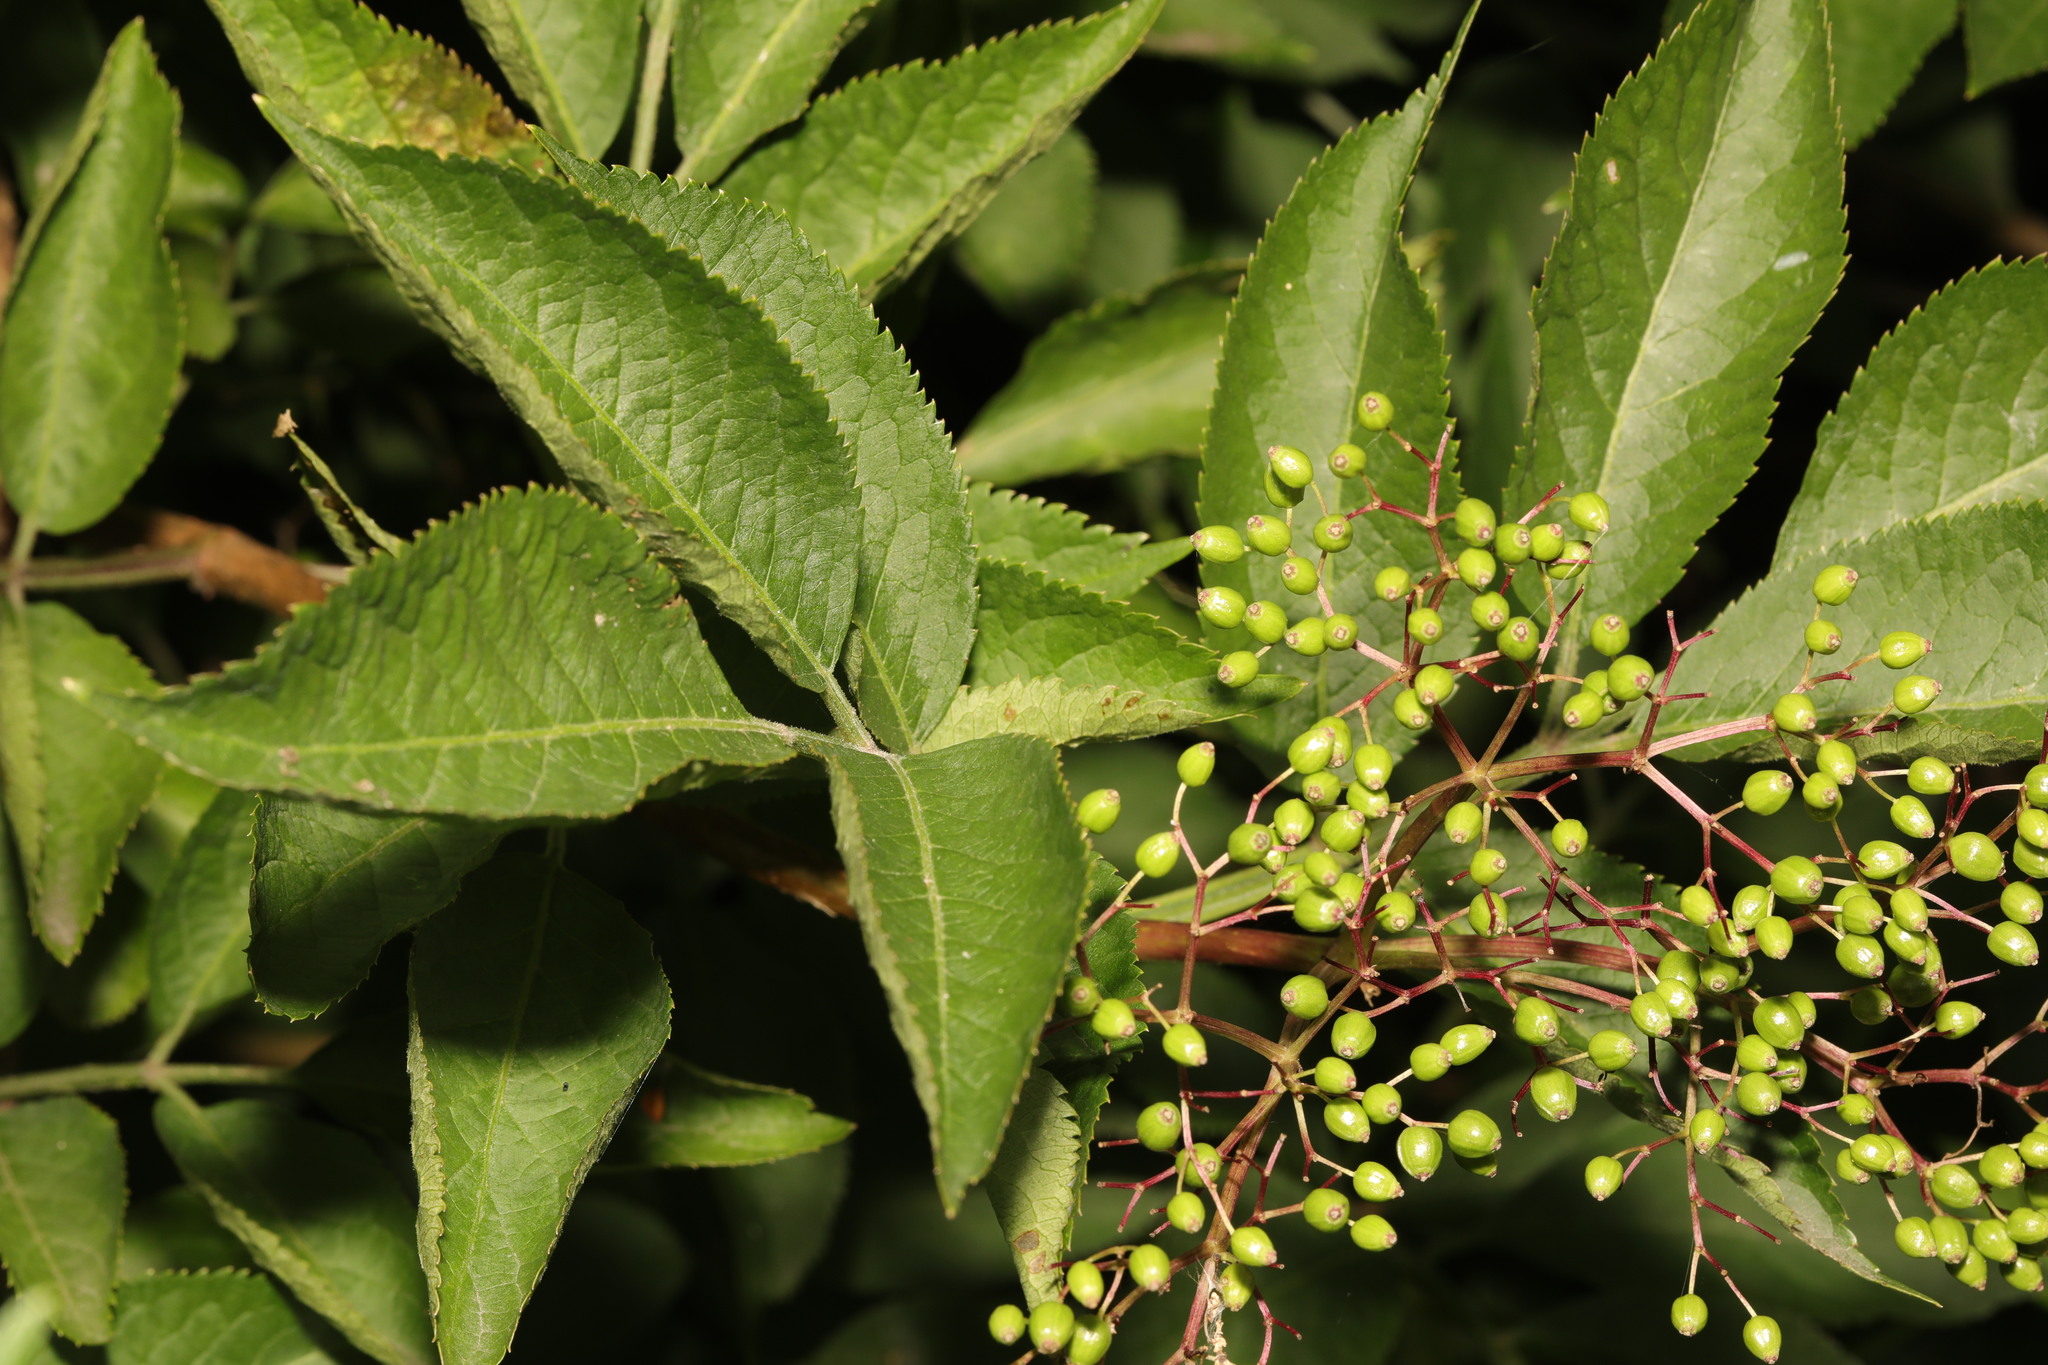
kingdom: Plantae
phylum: Tracheophyta
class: Magnoliopsida
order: Dipsacales
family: Viburnaceae
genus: Sambucus
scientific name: Sambucus nigra
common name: Elder
